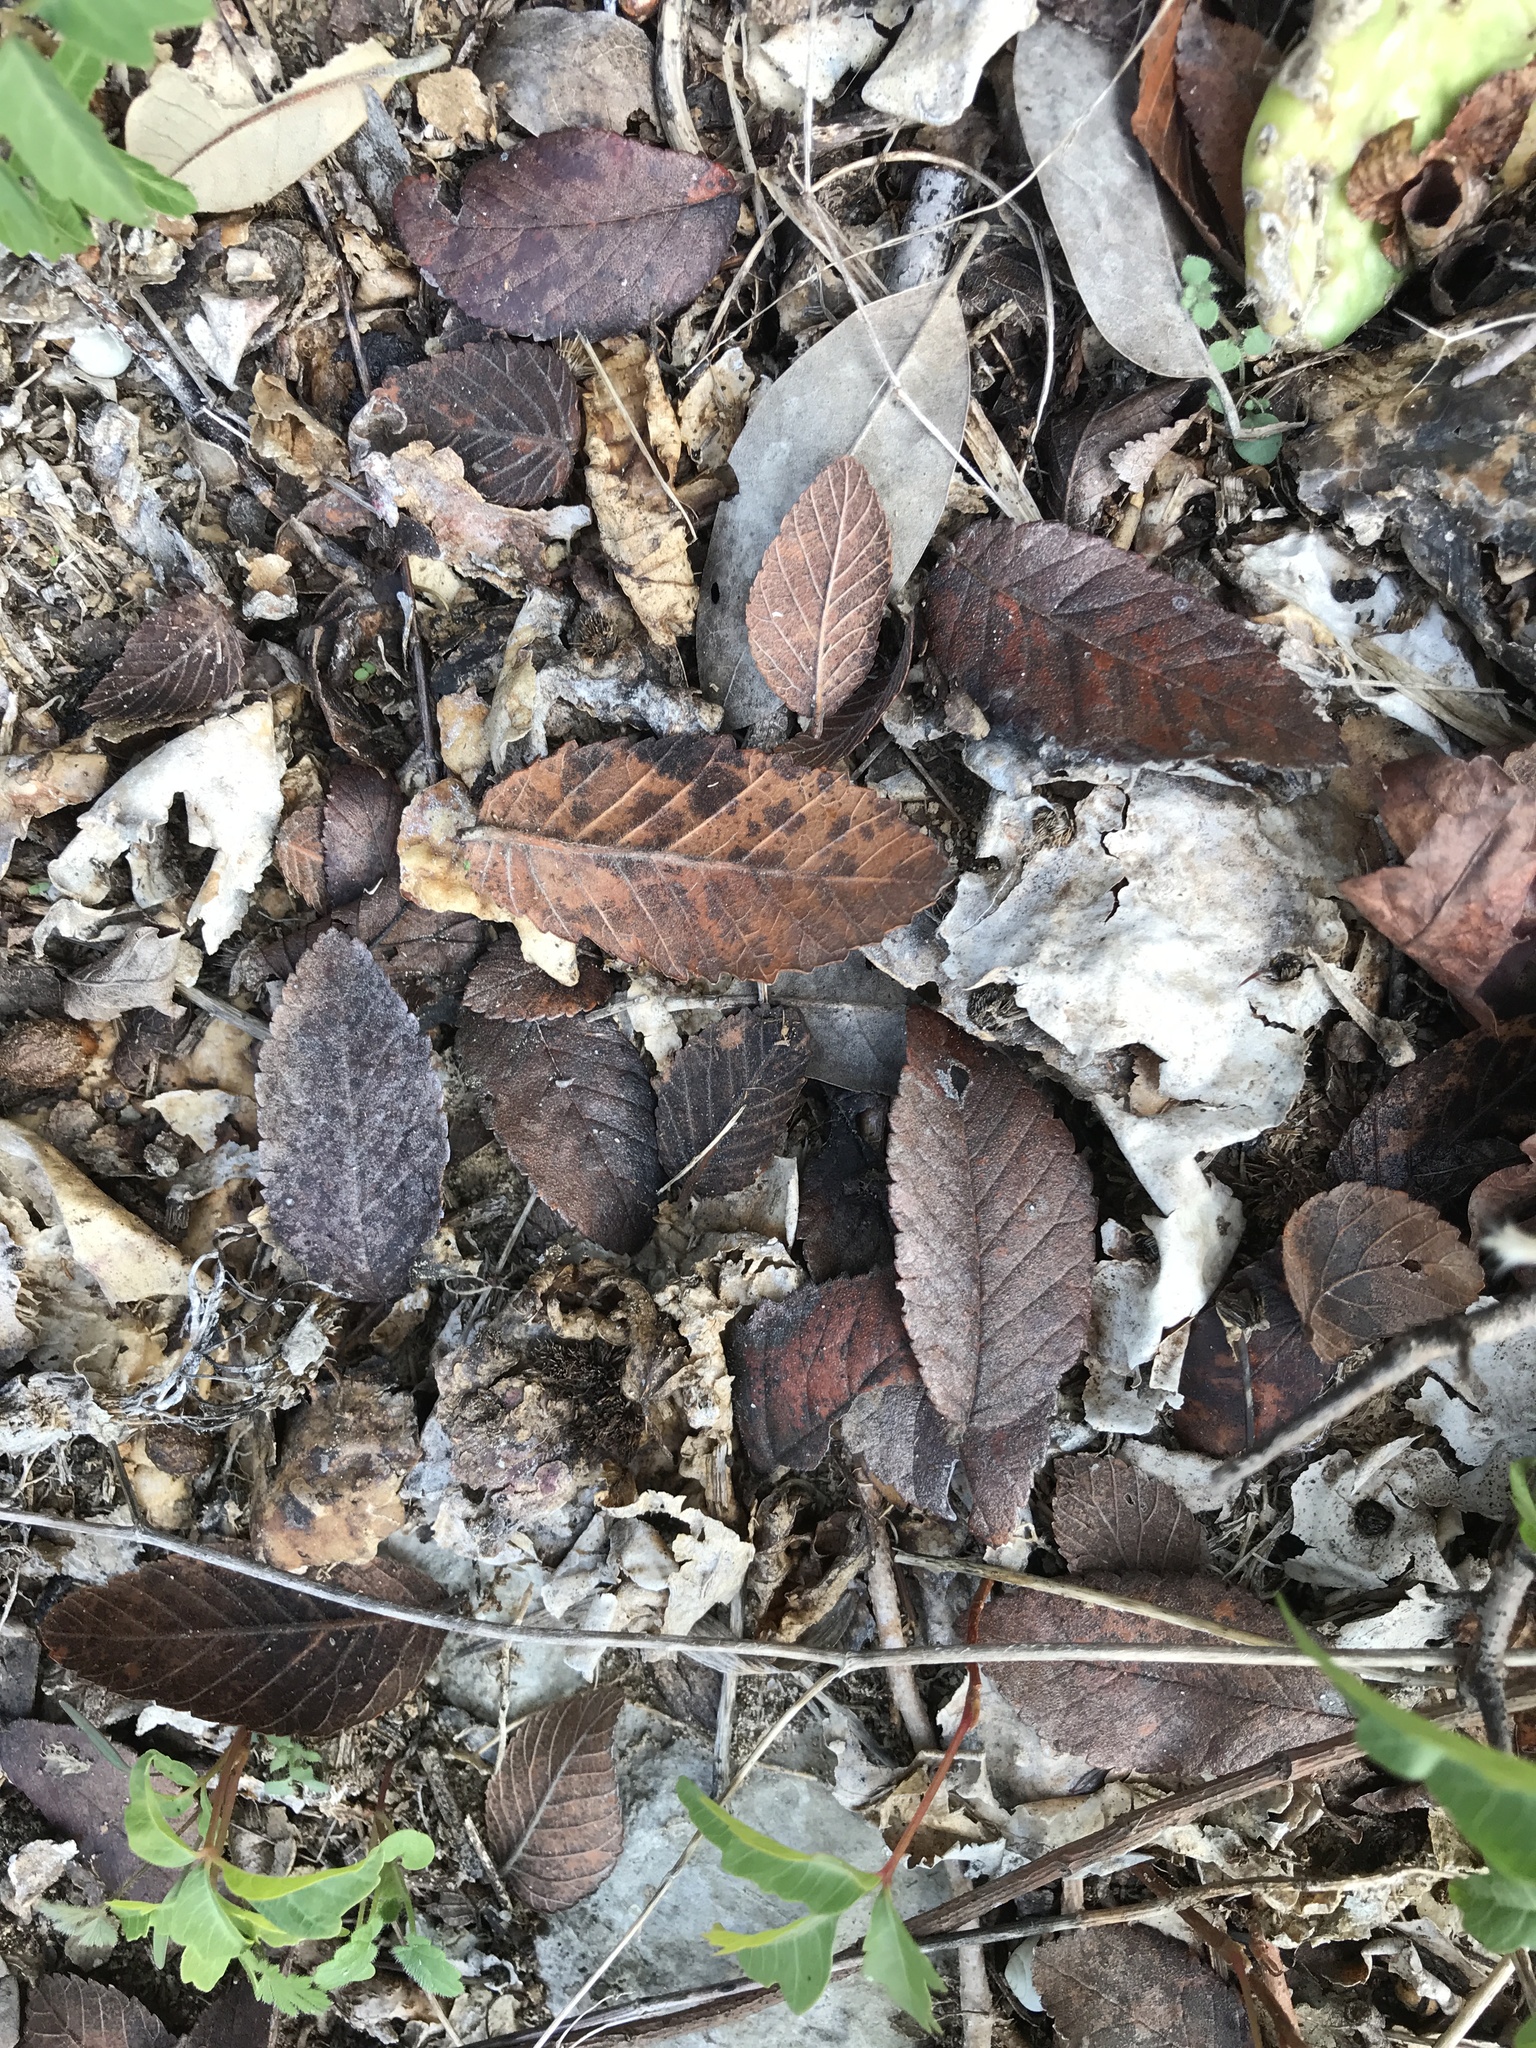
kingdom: Plantae
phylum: Tracheophyta
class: Magnoliopsida
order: Rosales
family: Ulmaceae
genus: Ulmus
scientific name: Ulmus crassifolia
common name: Basket elm
